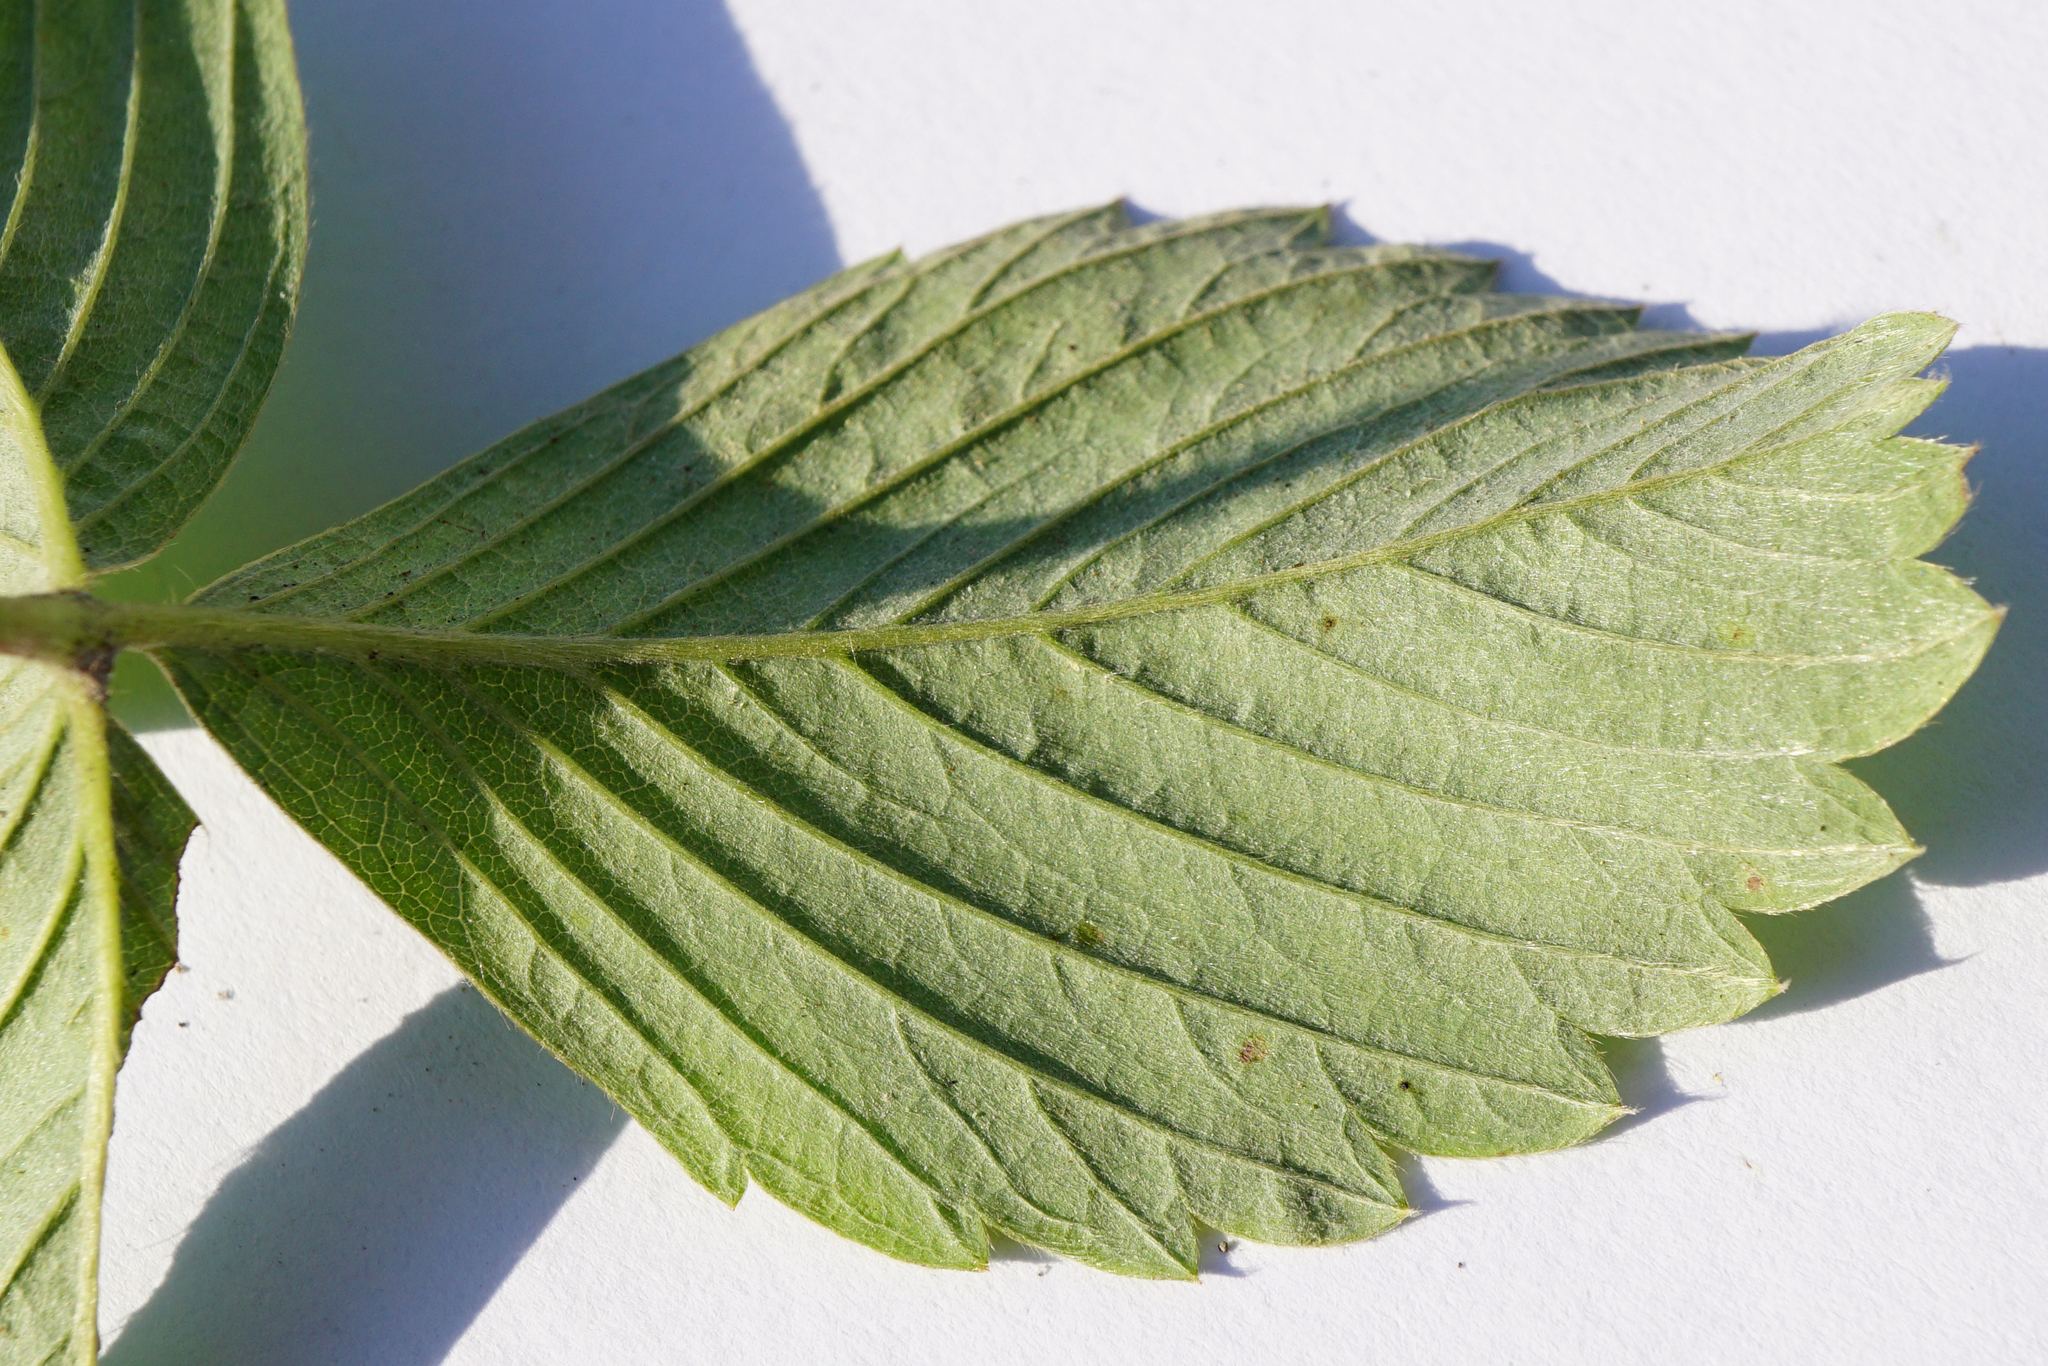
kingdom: Plantae
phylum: Tracheophyta
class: Magnoliopsida
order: Rosales
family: Rosaceae
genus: Fragaria
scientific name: Fragaria viridis
